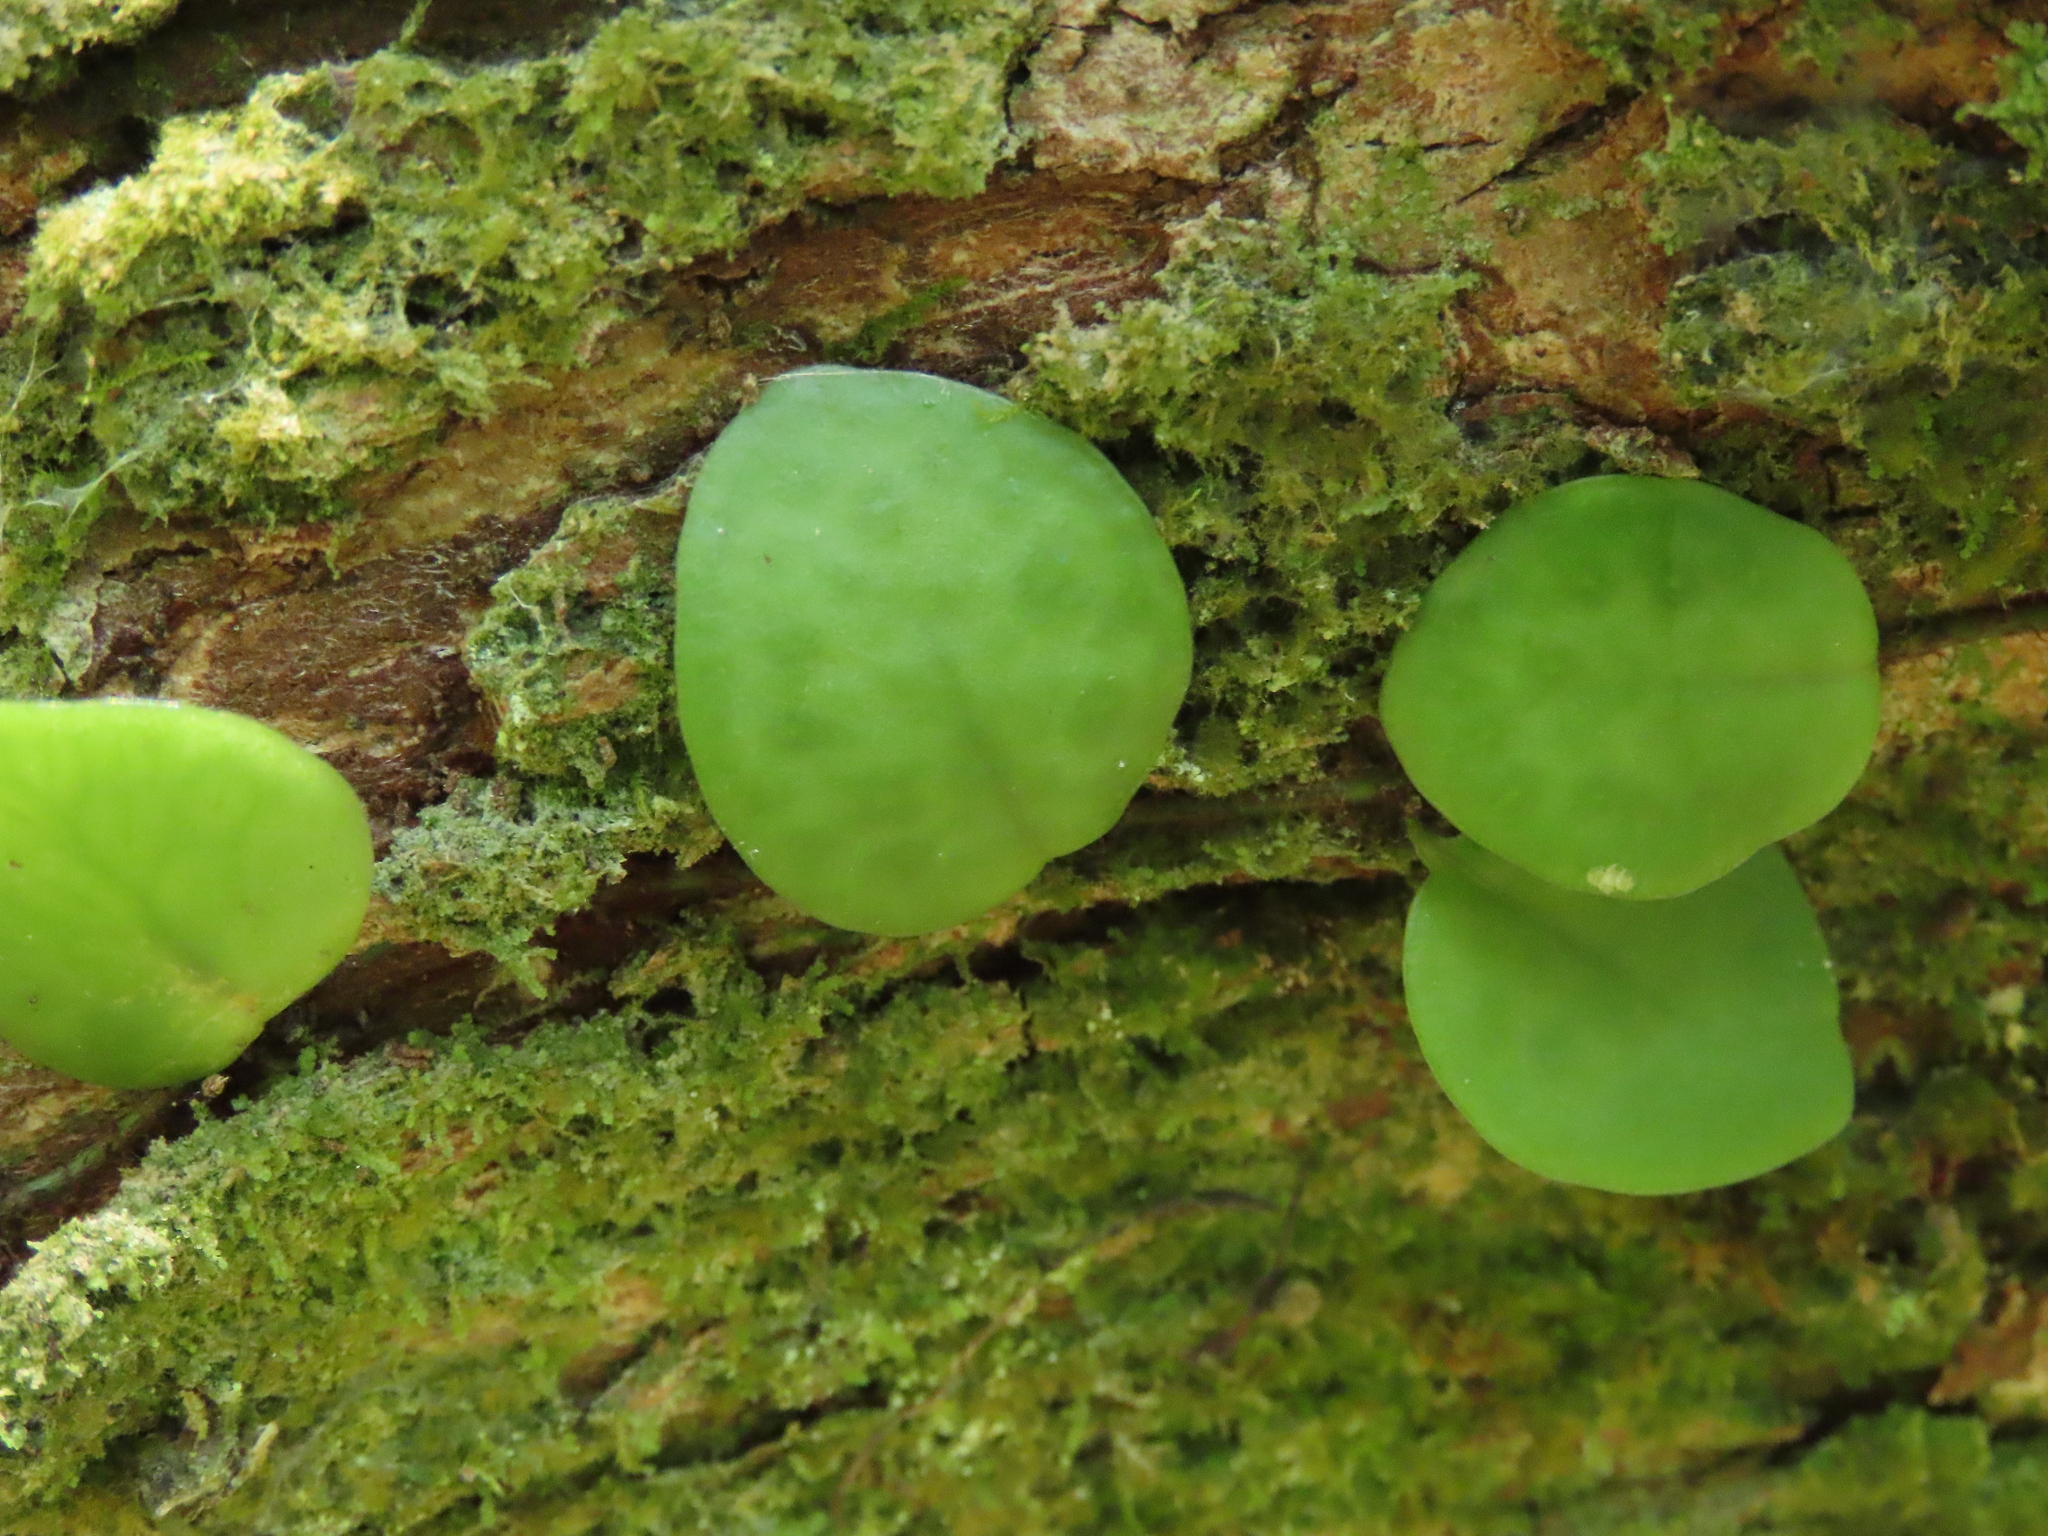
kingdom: Plantae
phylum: Tracheophyta
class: Polypodiopsida
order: Polypodiales
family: Polypodiaceae
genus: Lepisorus
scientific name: Lepisorus microphyllus
